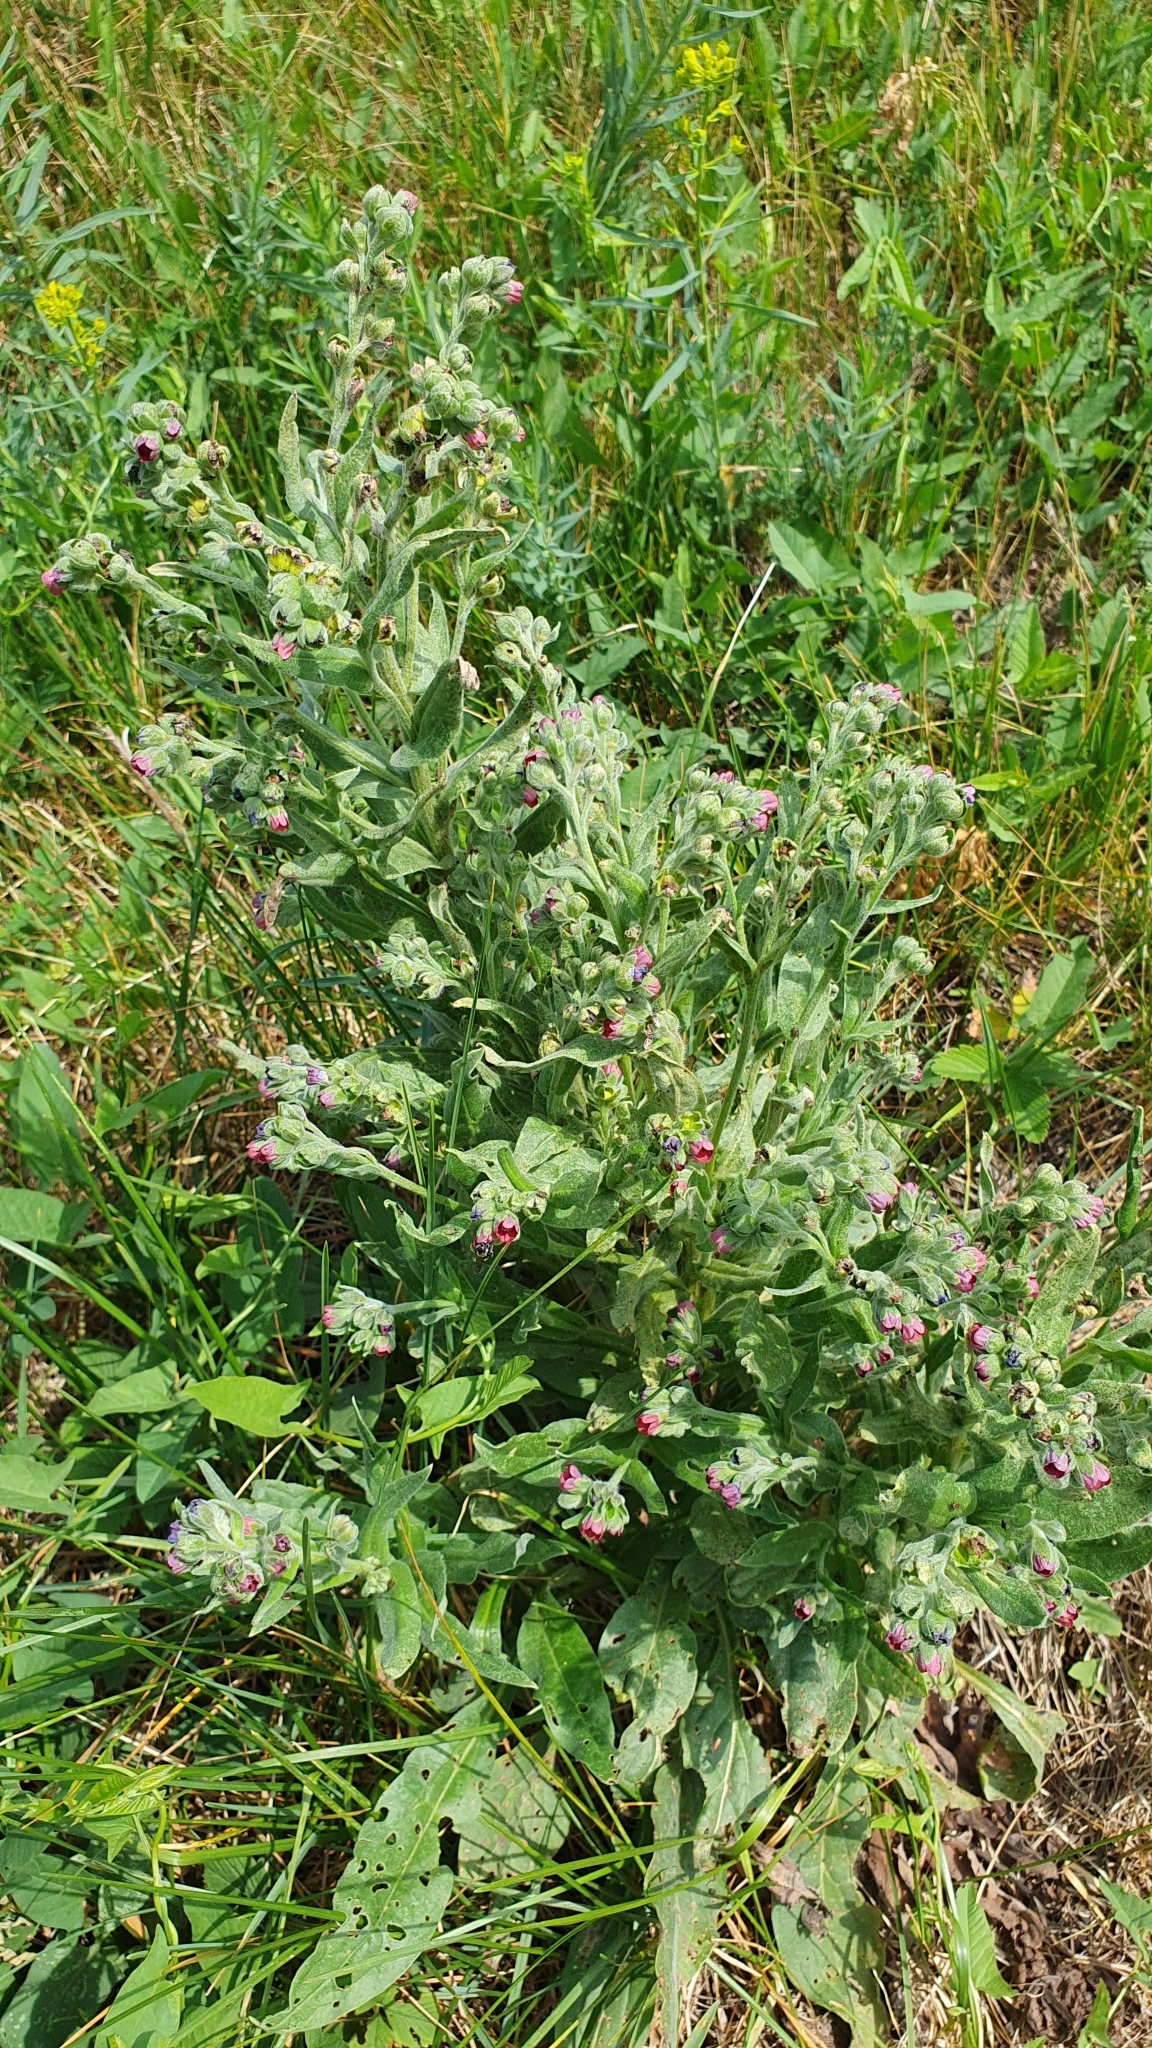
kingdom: Plantae
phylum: Tracheophyta
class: Magnoliopsida
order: Boraginales
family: Boraginaceae
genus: Cynoglossum
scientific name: Cynoglossum officinale
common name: Hound's-tongue
